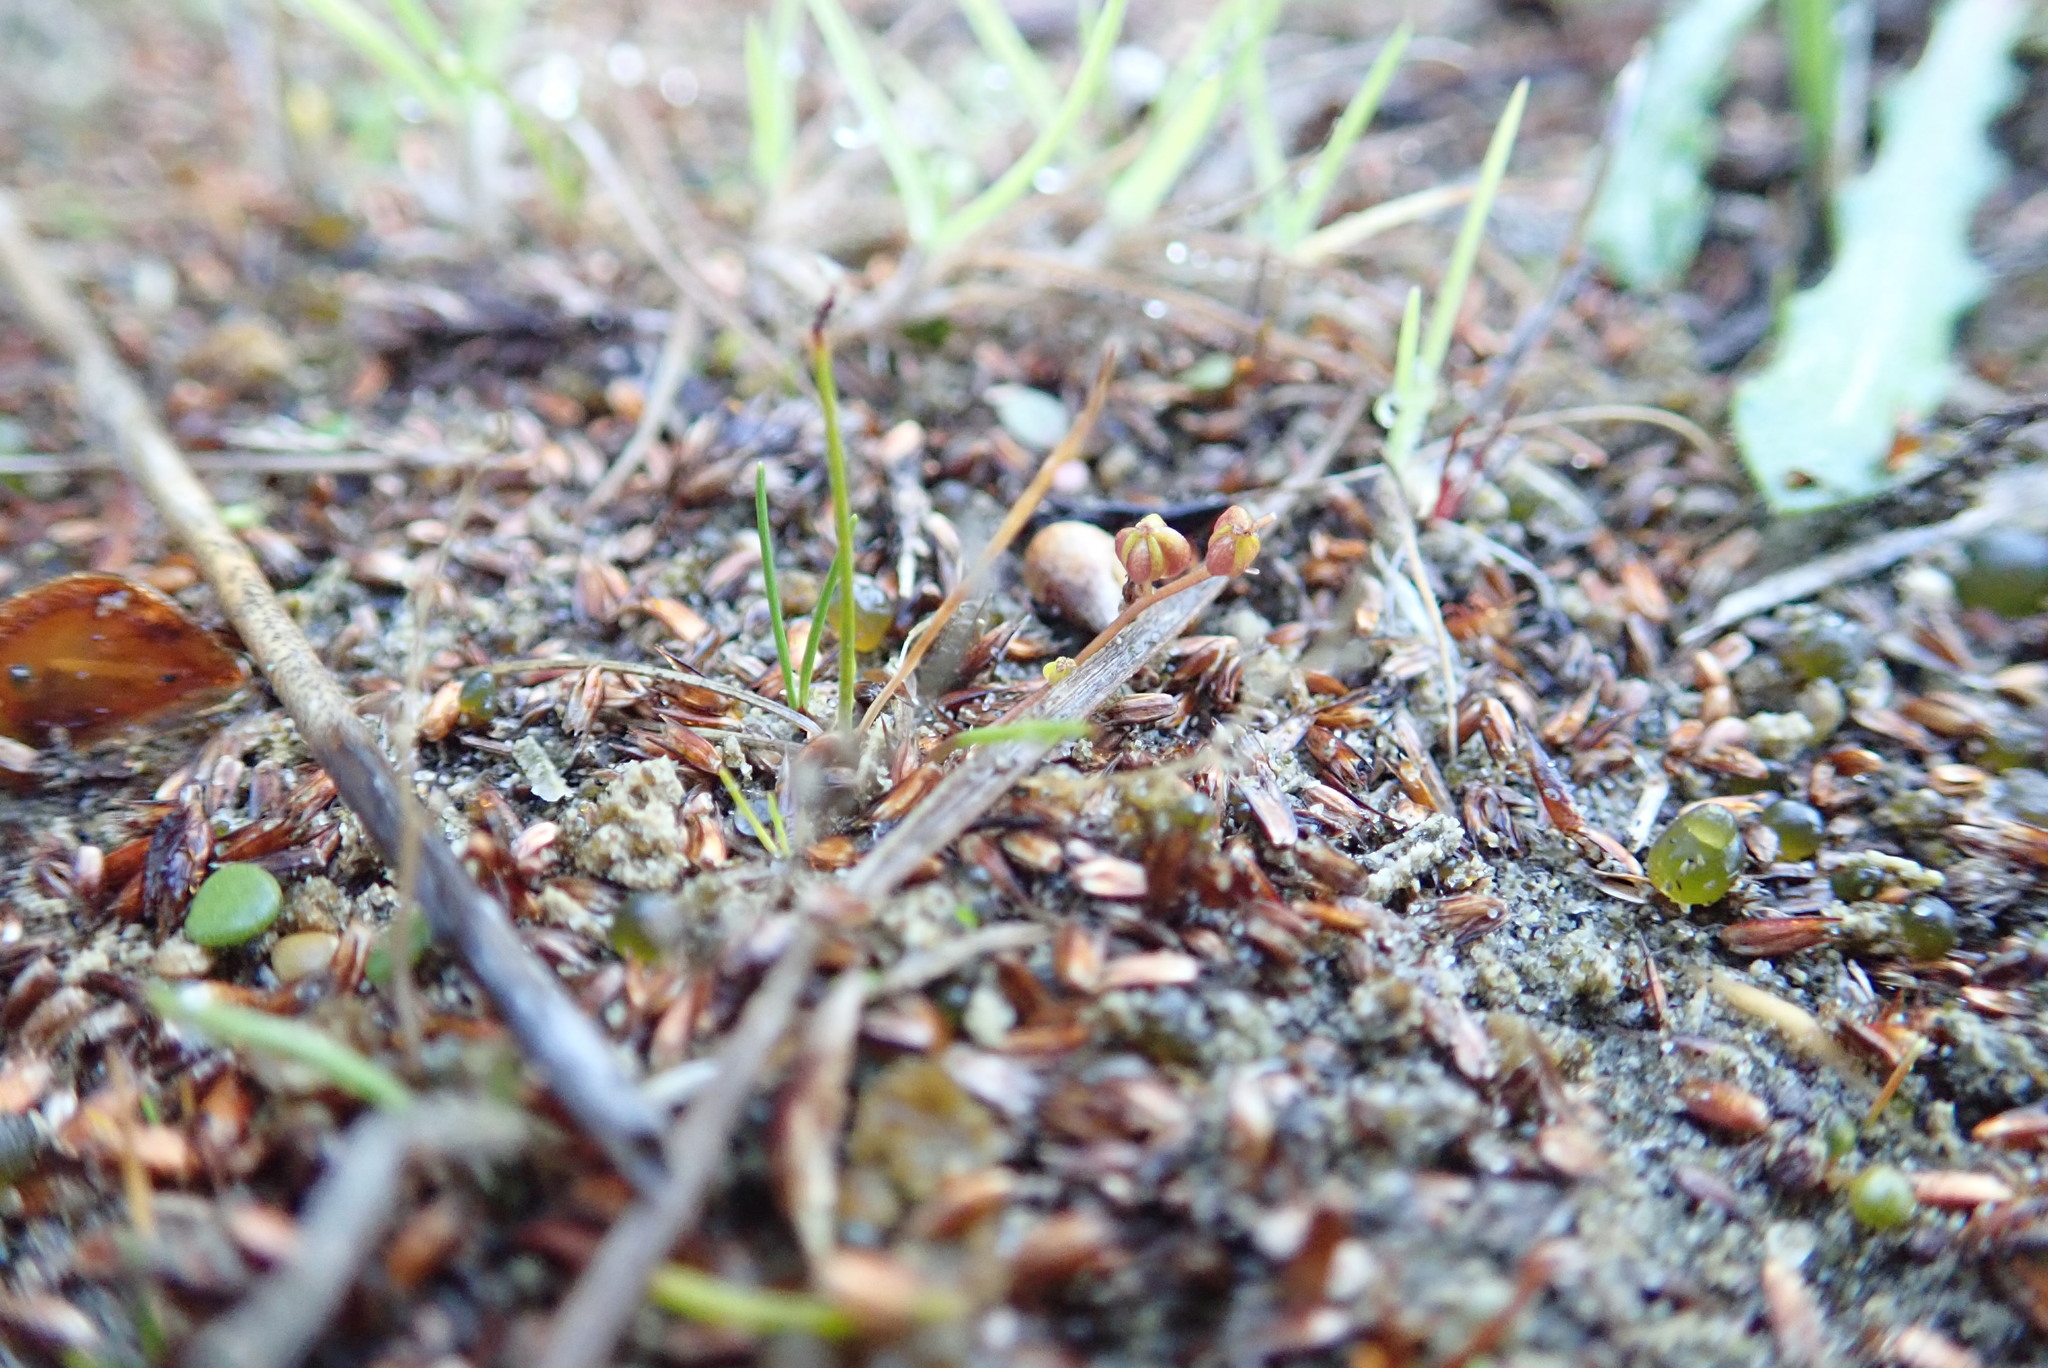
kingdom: Plantae
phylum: Tracheophyta
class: Liliopsida
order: Alismatales
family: Juncaginaceae
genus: Triglochin
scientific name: Triglochin striata
